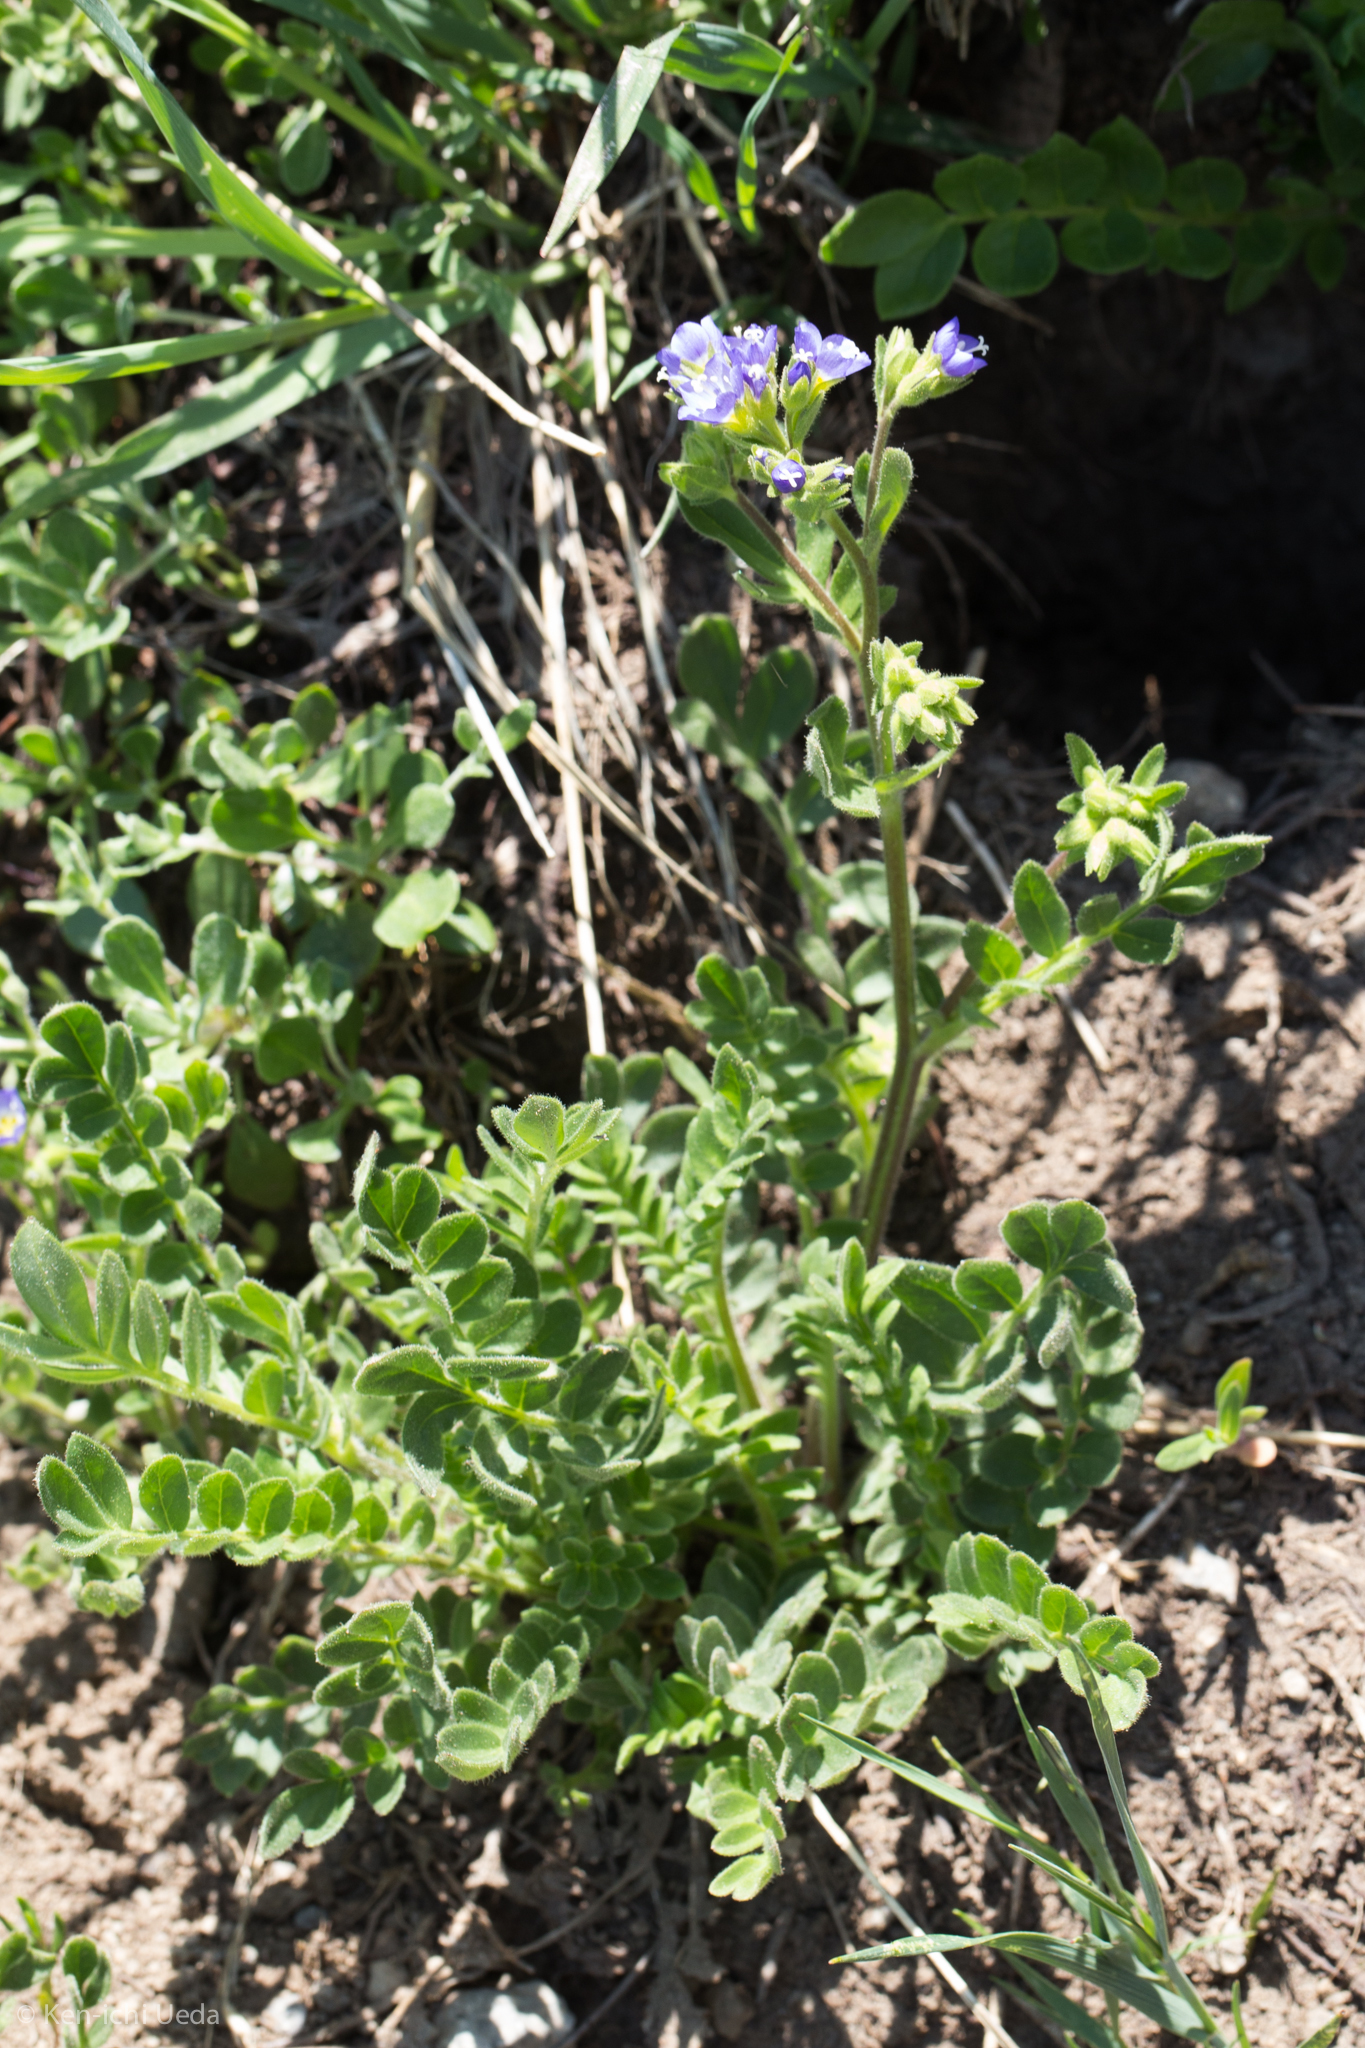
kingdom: Plantae
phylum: Tracheophyta
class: Magnoliopsida
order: Ericales
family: Polemoniaceae
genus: Polemonium
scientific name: Polemonium californicum
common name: California jacob's ladder
